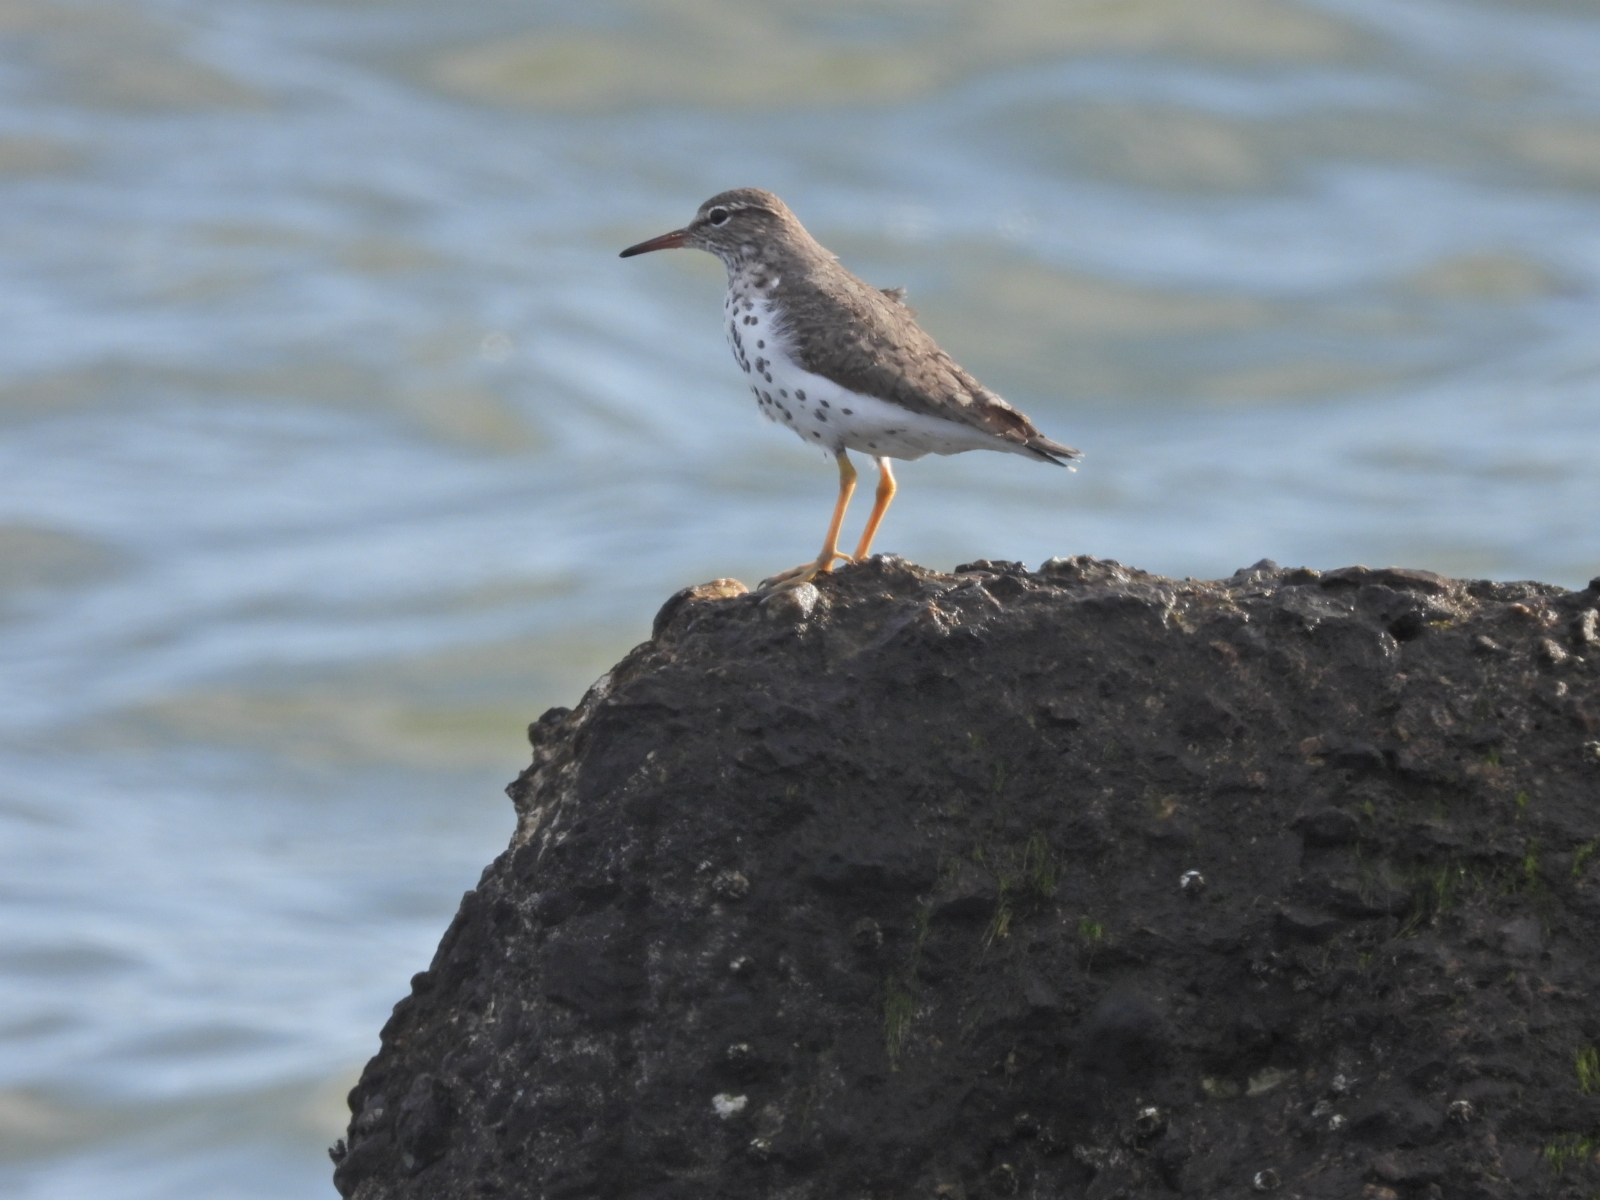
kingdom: Animalia
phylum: Chordata
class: Aves
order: Charadriiformes
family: Scolopacidae
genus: Actitis
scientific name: Actitis macularius
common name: Spotted sandpiper
